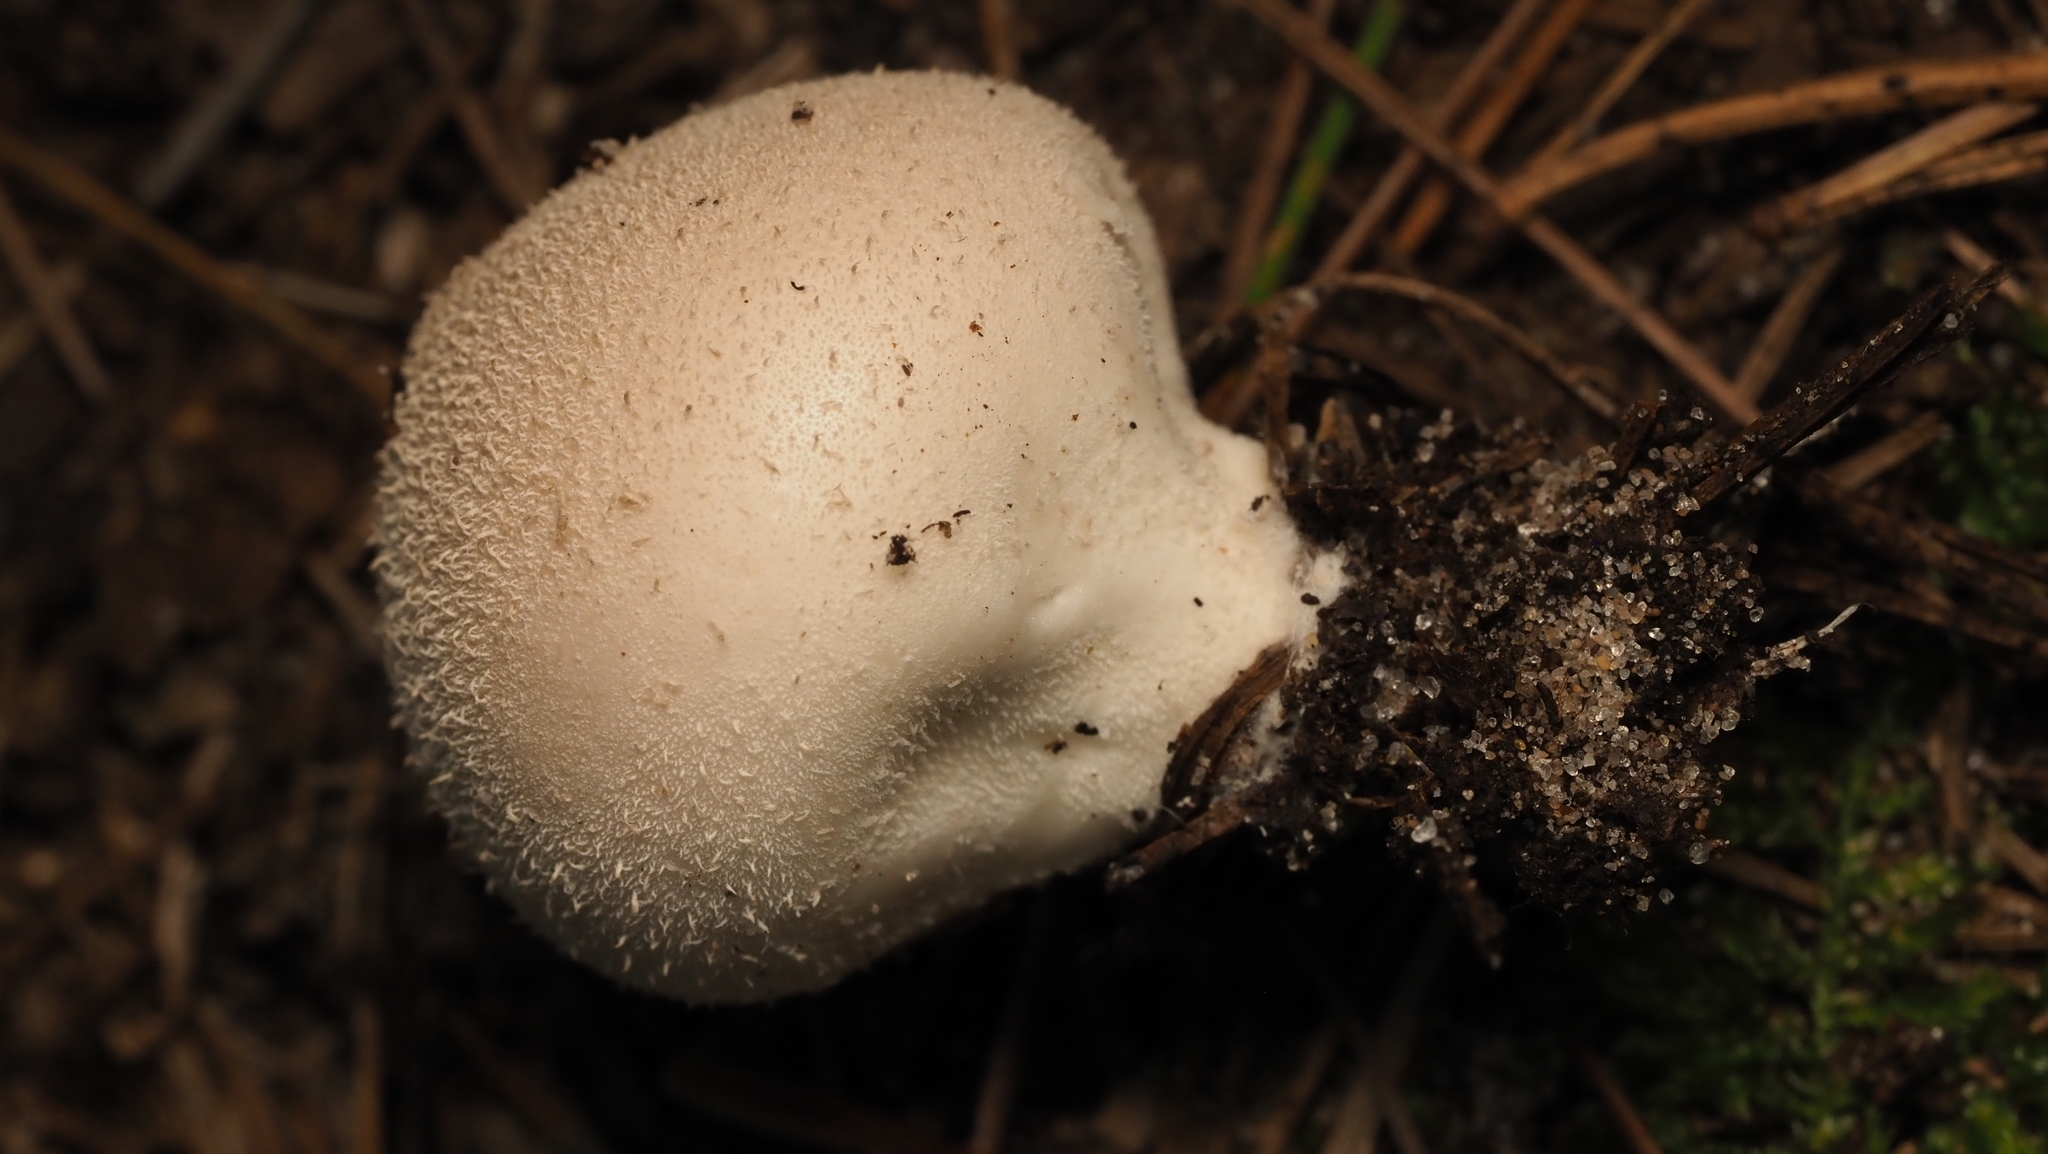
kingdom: Fungi
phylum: Basidiomycota
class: Agaricomycetes
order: Agaricales
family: Lycoperdaceae
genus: Lycoperdon
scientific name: Lycoperdon perlatum
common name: Common puffball
